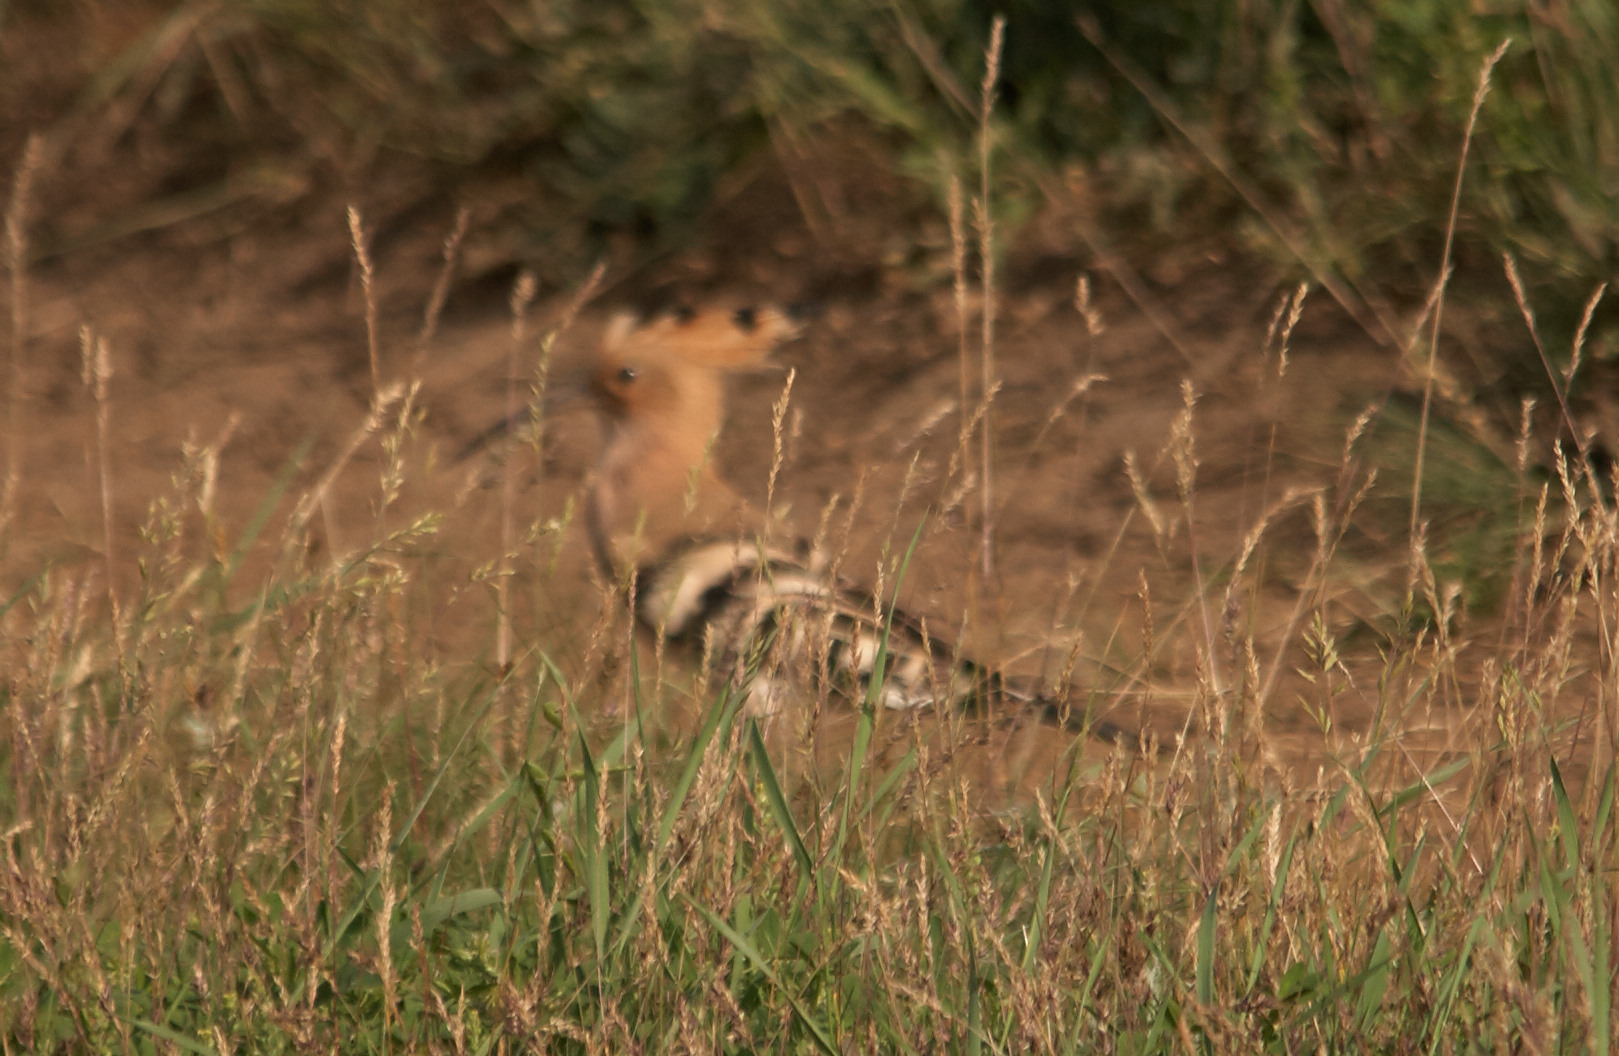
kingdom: Animalia
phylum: Chordata
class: Aves
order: Bucerotiformes
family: Upupidae
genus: Upupa
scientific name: Upupa epops
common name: Eurasian hoopoe
